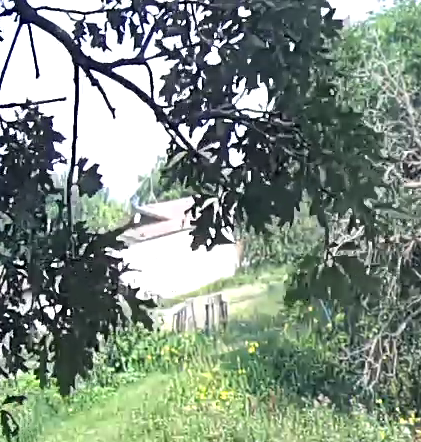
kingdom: Plantae
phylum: Tracheophyta
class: Magnoliopsida
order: Fagales
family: Fagaceae
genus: Quercus
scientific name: Quercus macrocarpa
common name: Bur oak
